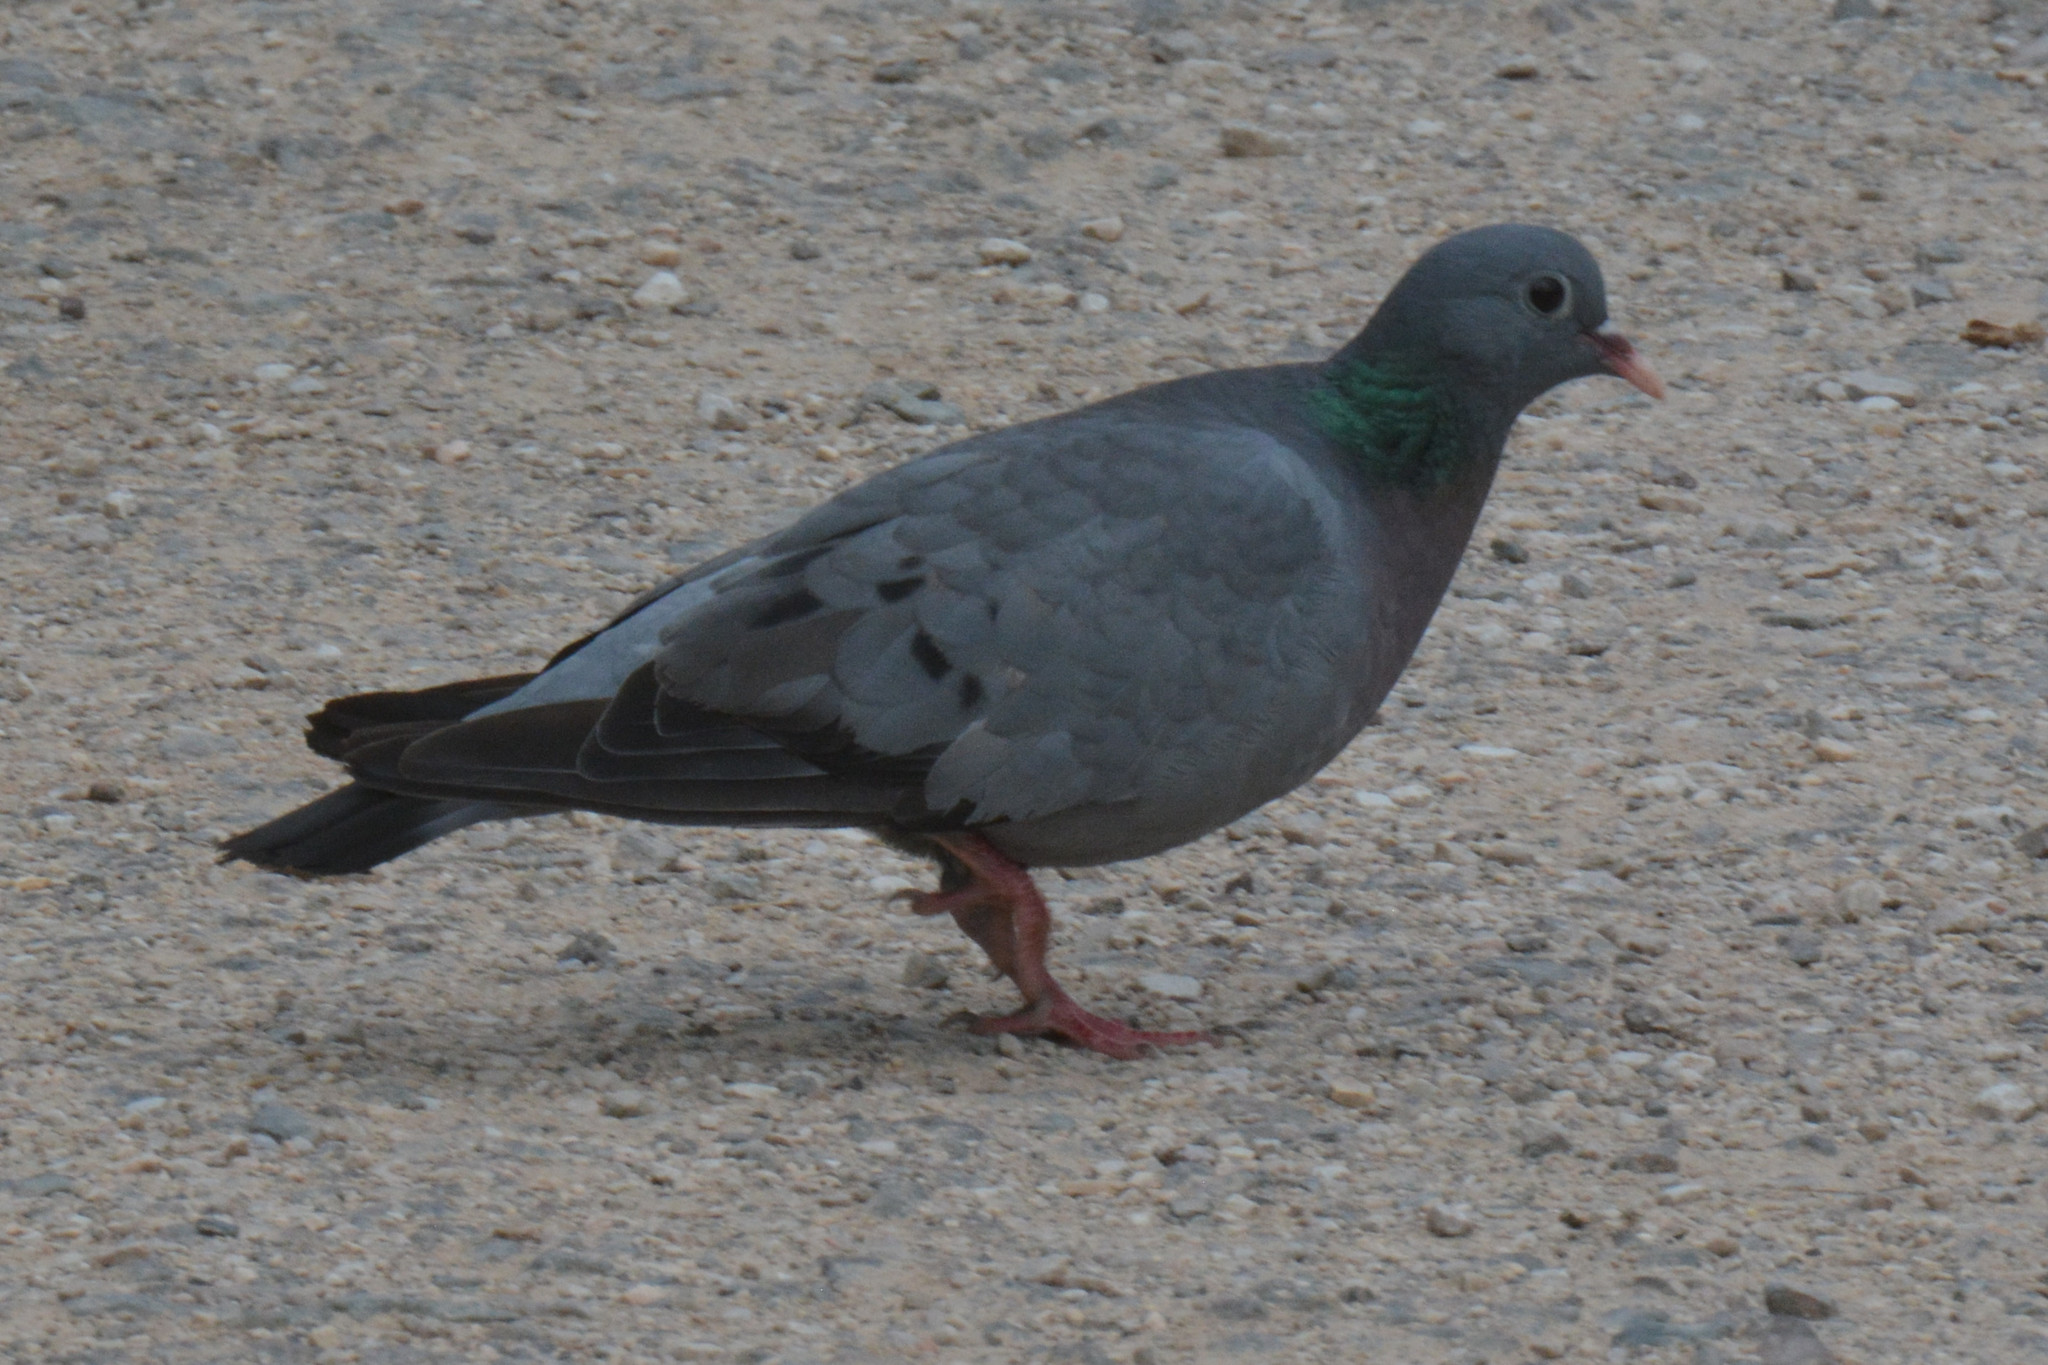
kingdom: Animalia
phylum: Chordata
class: Aves
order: Columbiformes
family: Columbidae
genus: Columba
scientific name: Columba oenas
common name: Stock dove
